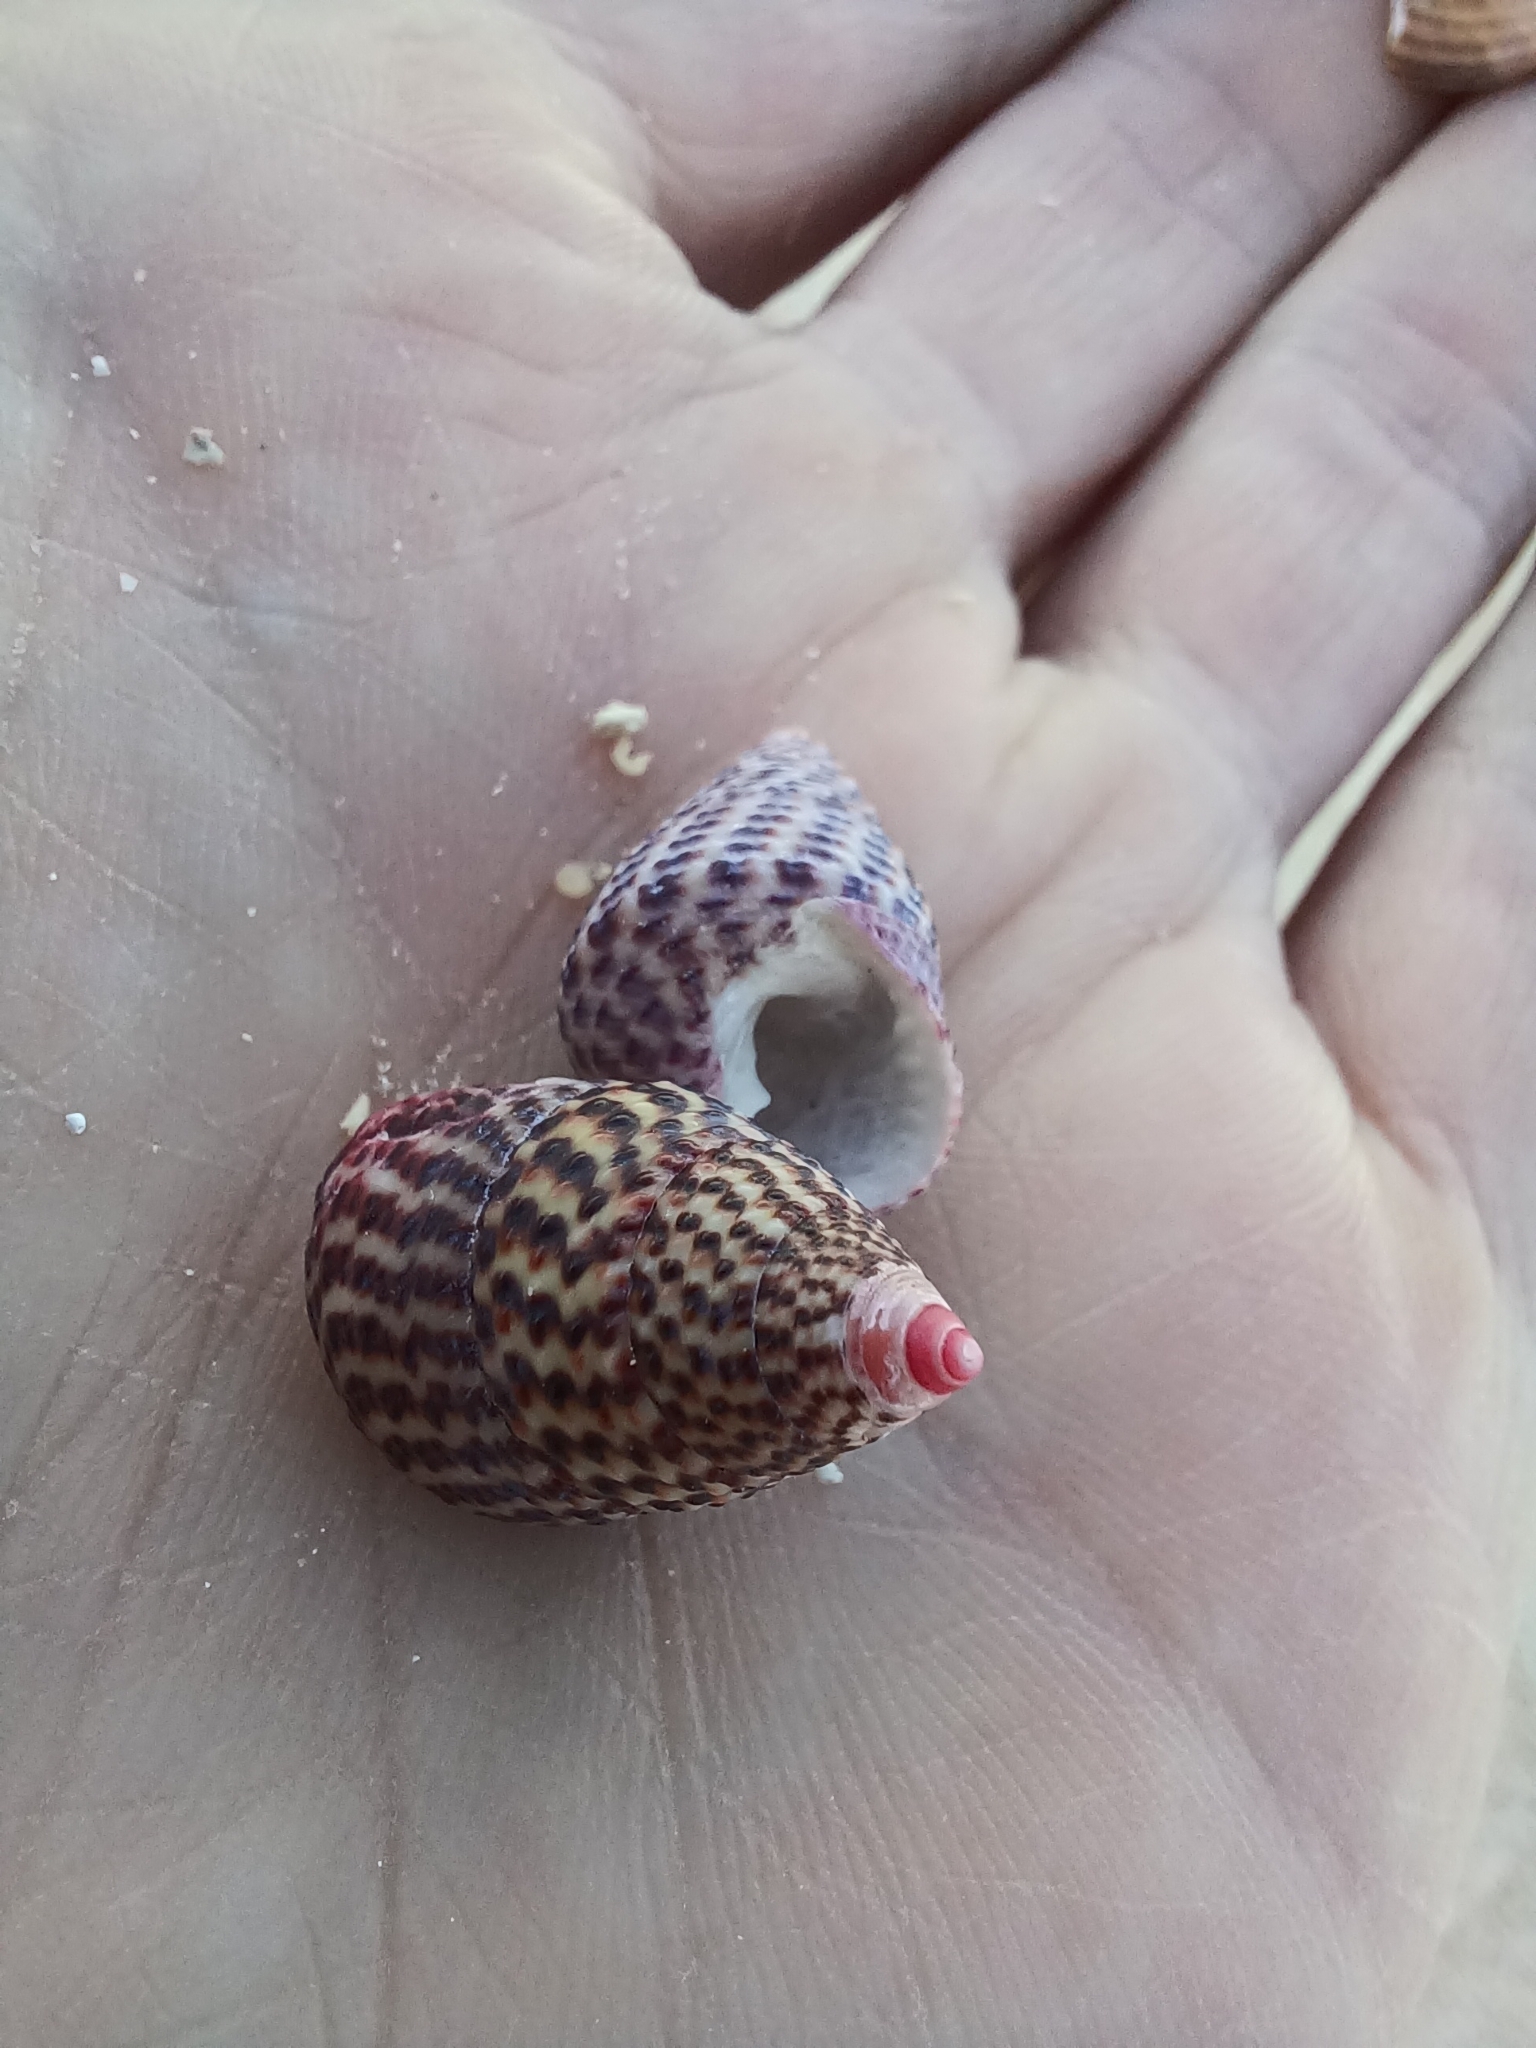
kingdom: Animalia
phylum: Mollusca
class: Gastropoda
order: Trochida
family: Trochidae
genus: Thalotia
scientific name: Thalotia conica
